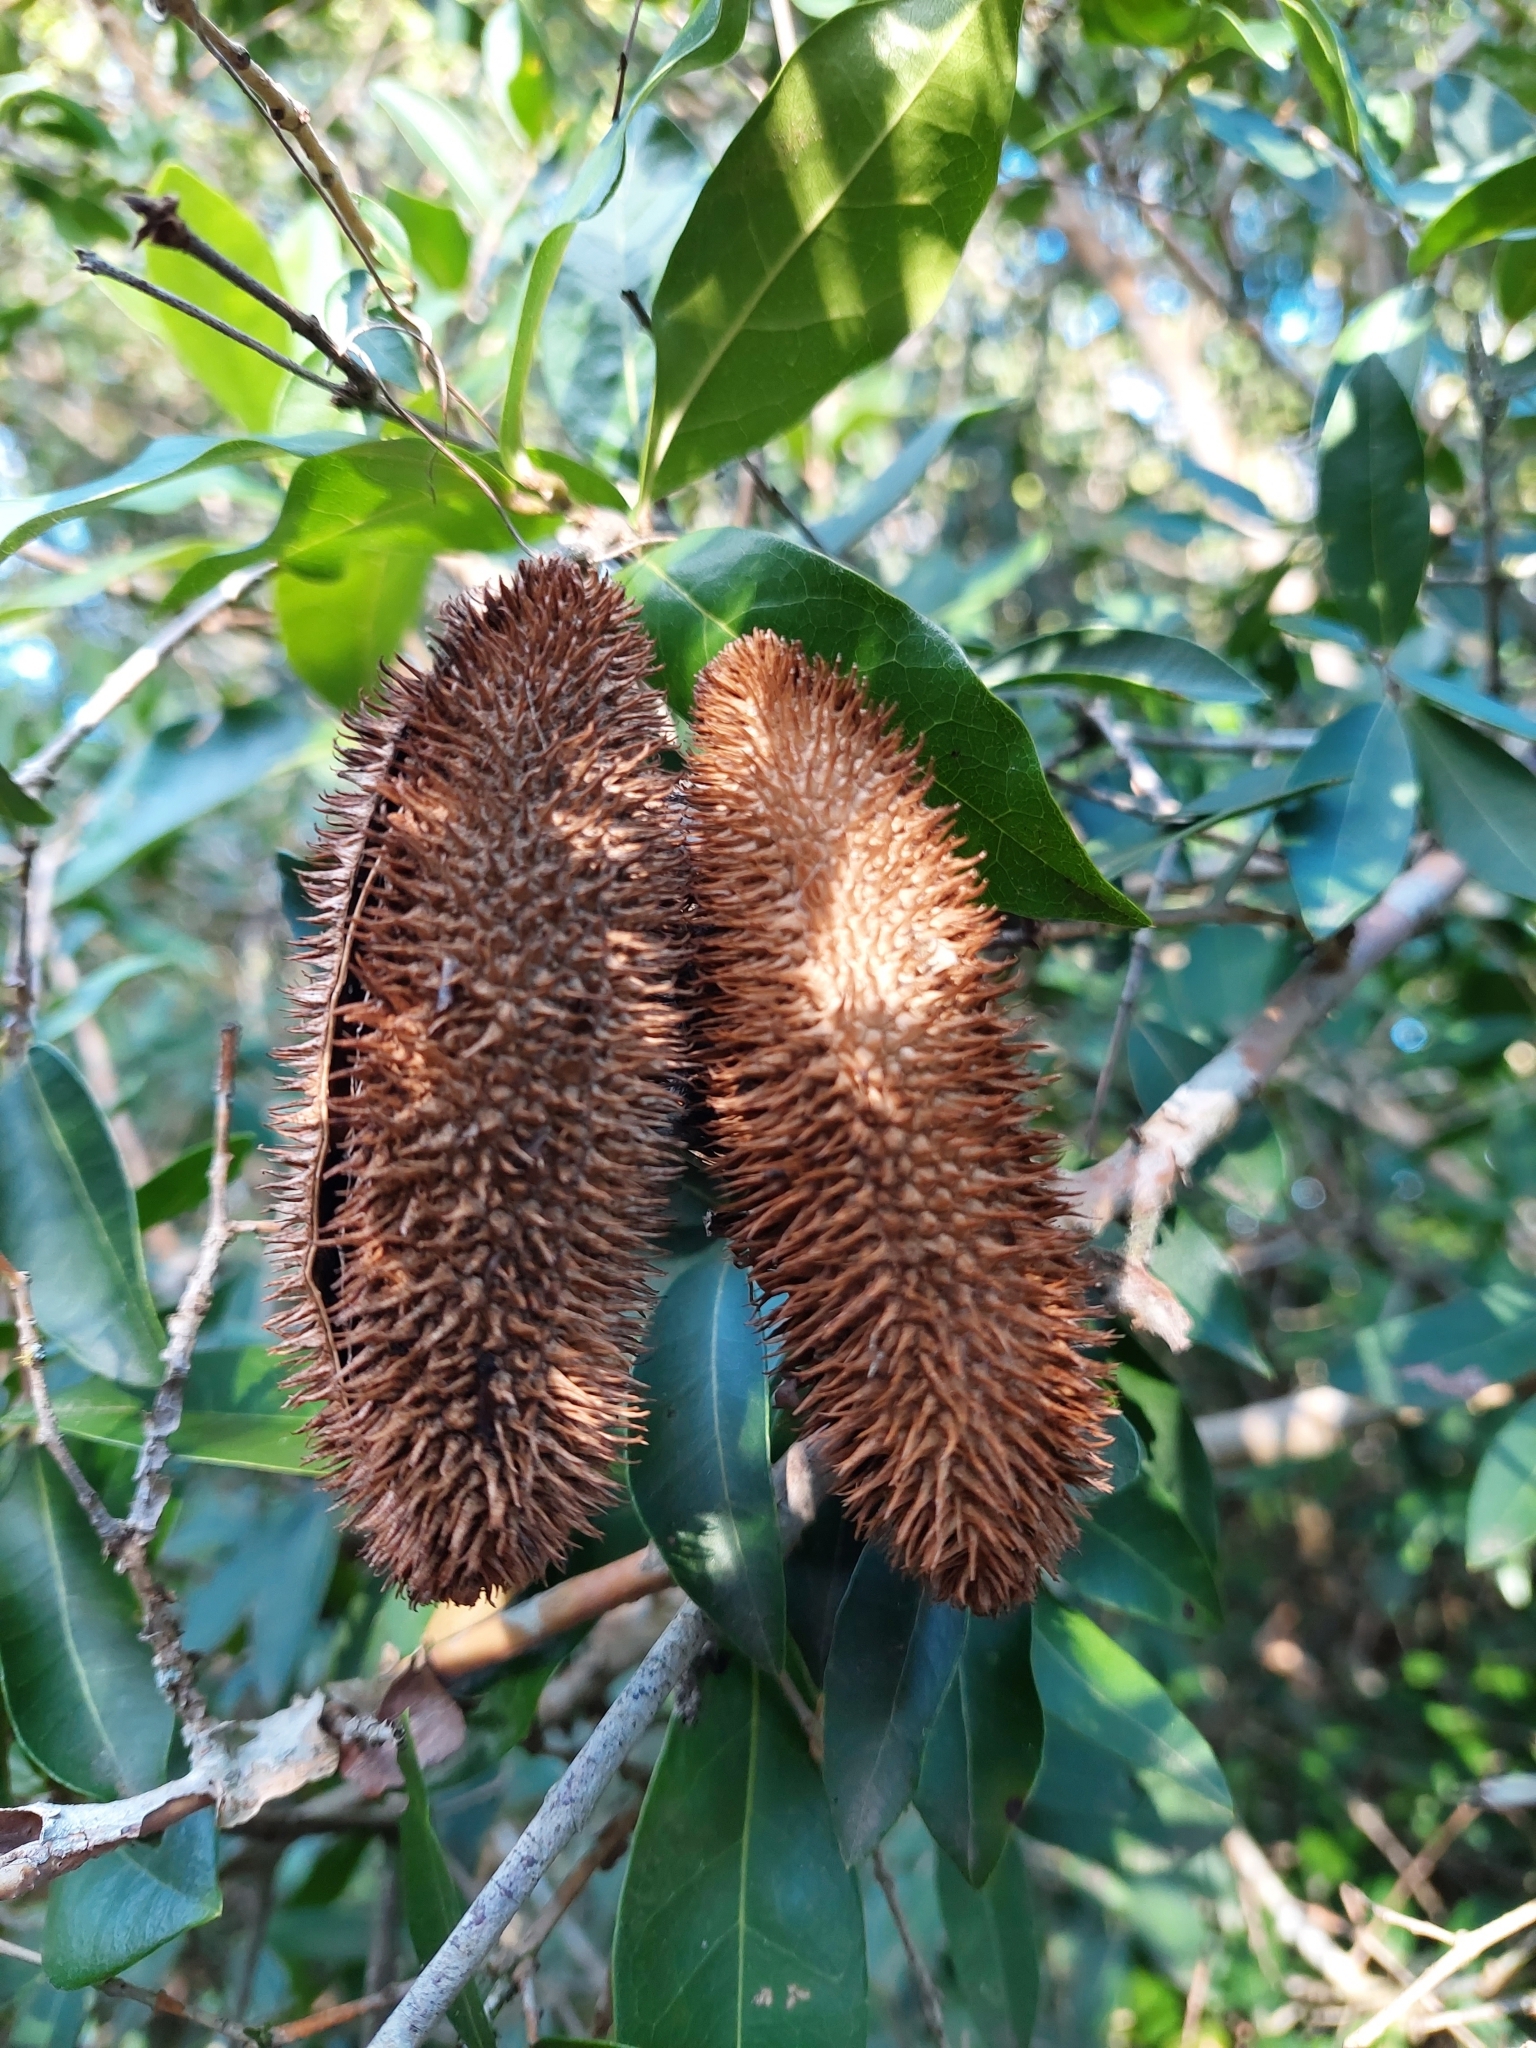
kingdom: Plantae
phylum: Tracheophyta
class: Magnoliopsida
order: Lamiales
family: Bignoniaceae
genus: Bignonia
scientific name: Bignonia callistegioides
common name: Argentine trumpetvine
